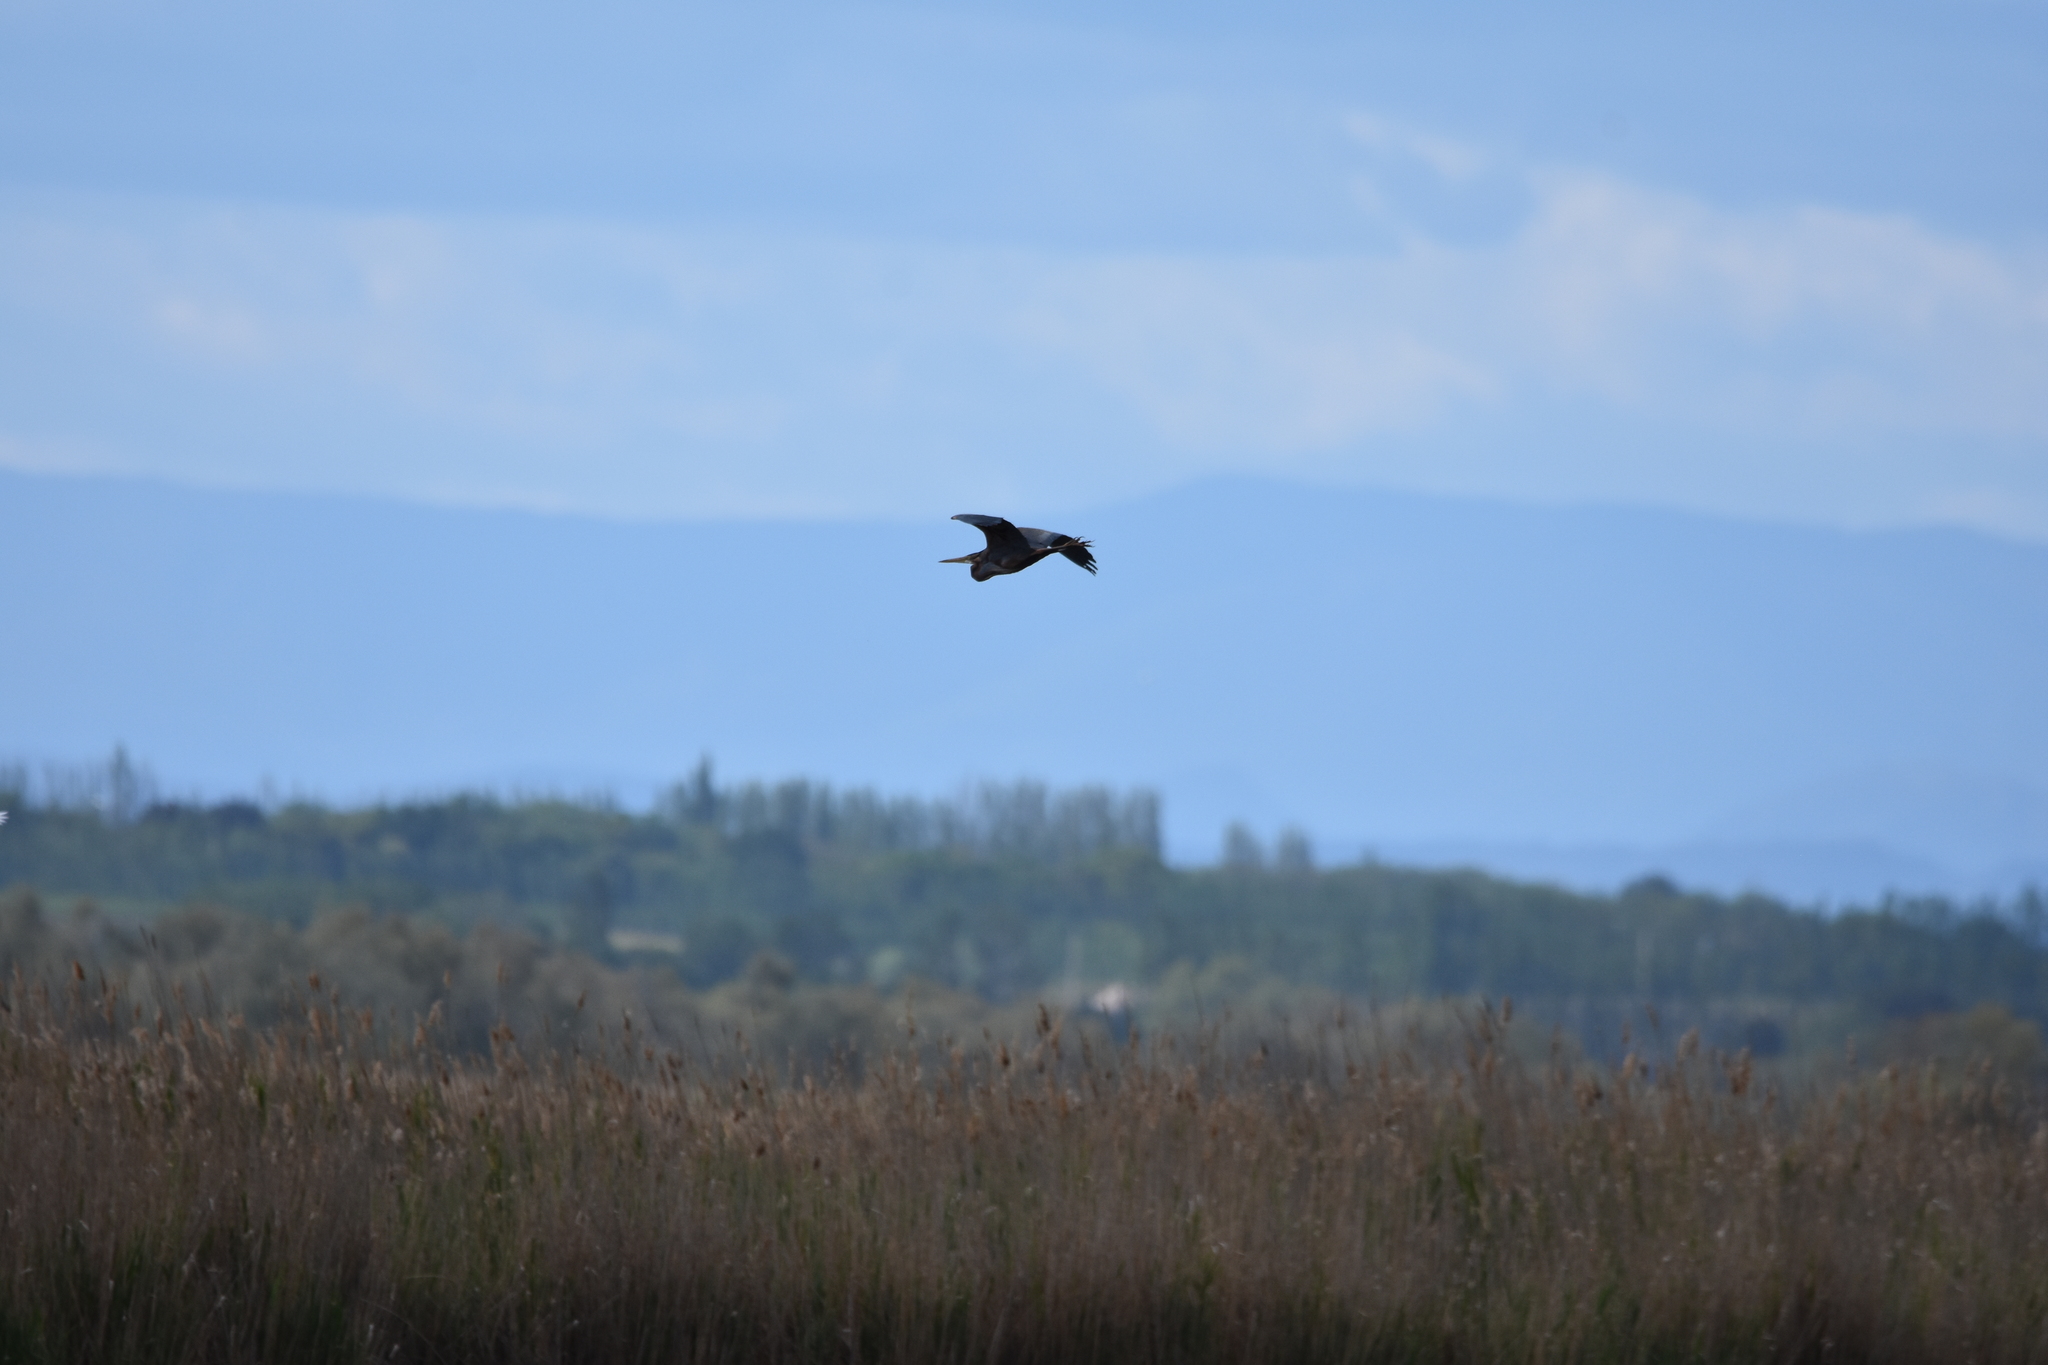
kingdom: Animalia
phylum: Chordata
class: Aves
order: Pelecaniformes
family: Ardeidae
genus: Ardea
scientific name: Ardea purpurea
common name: Purple heron
